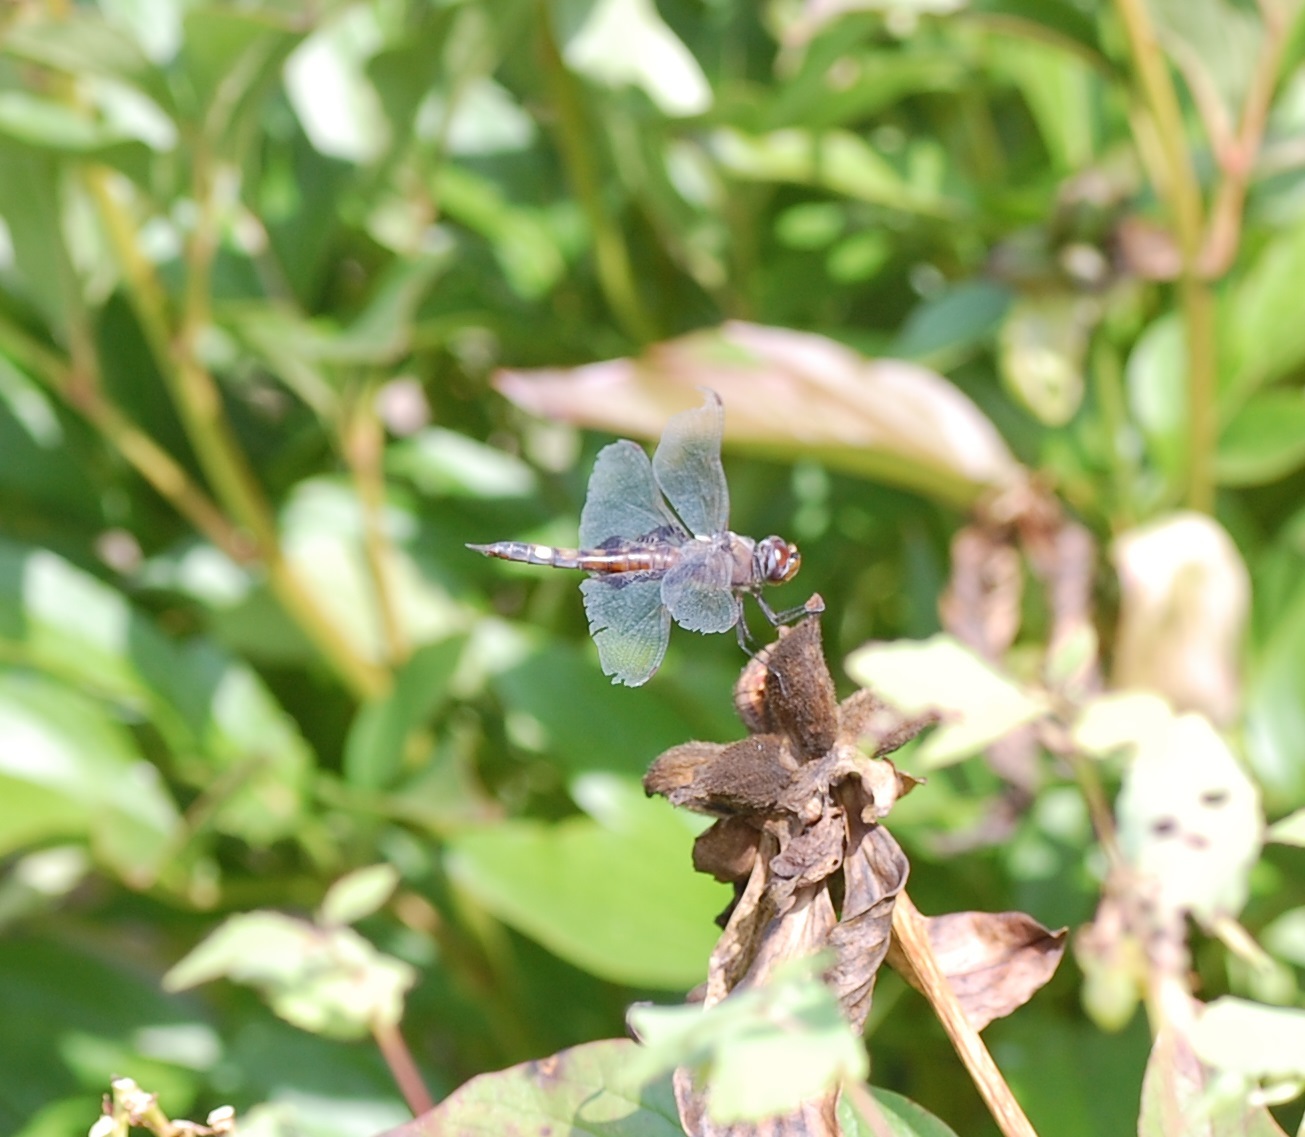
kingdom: Animalia
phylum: Arthropoda
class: Insecta
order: Odonata
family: Libellulidae
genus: Tramea
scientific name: Tramea lacerata
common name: Black saddlebags
